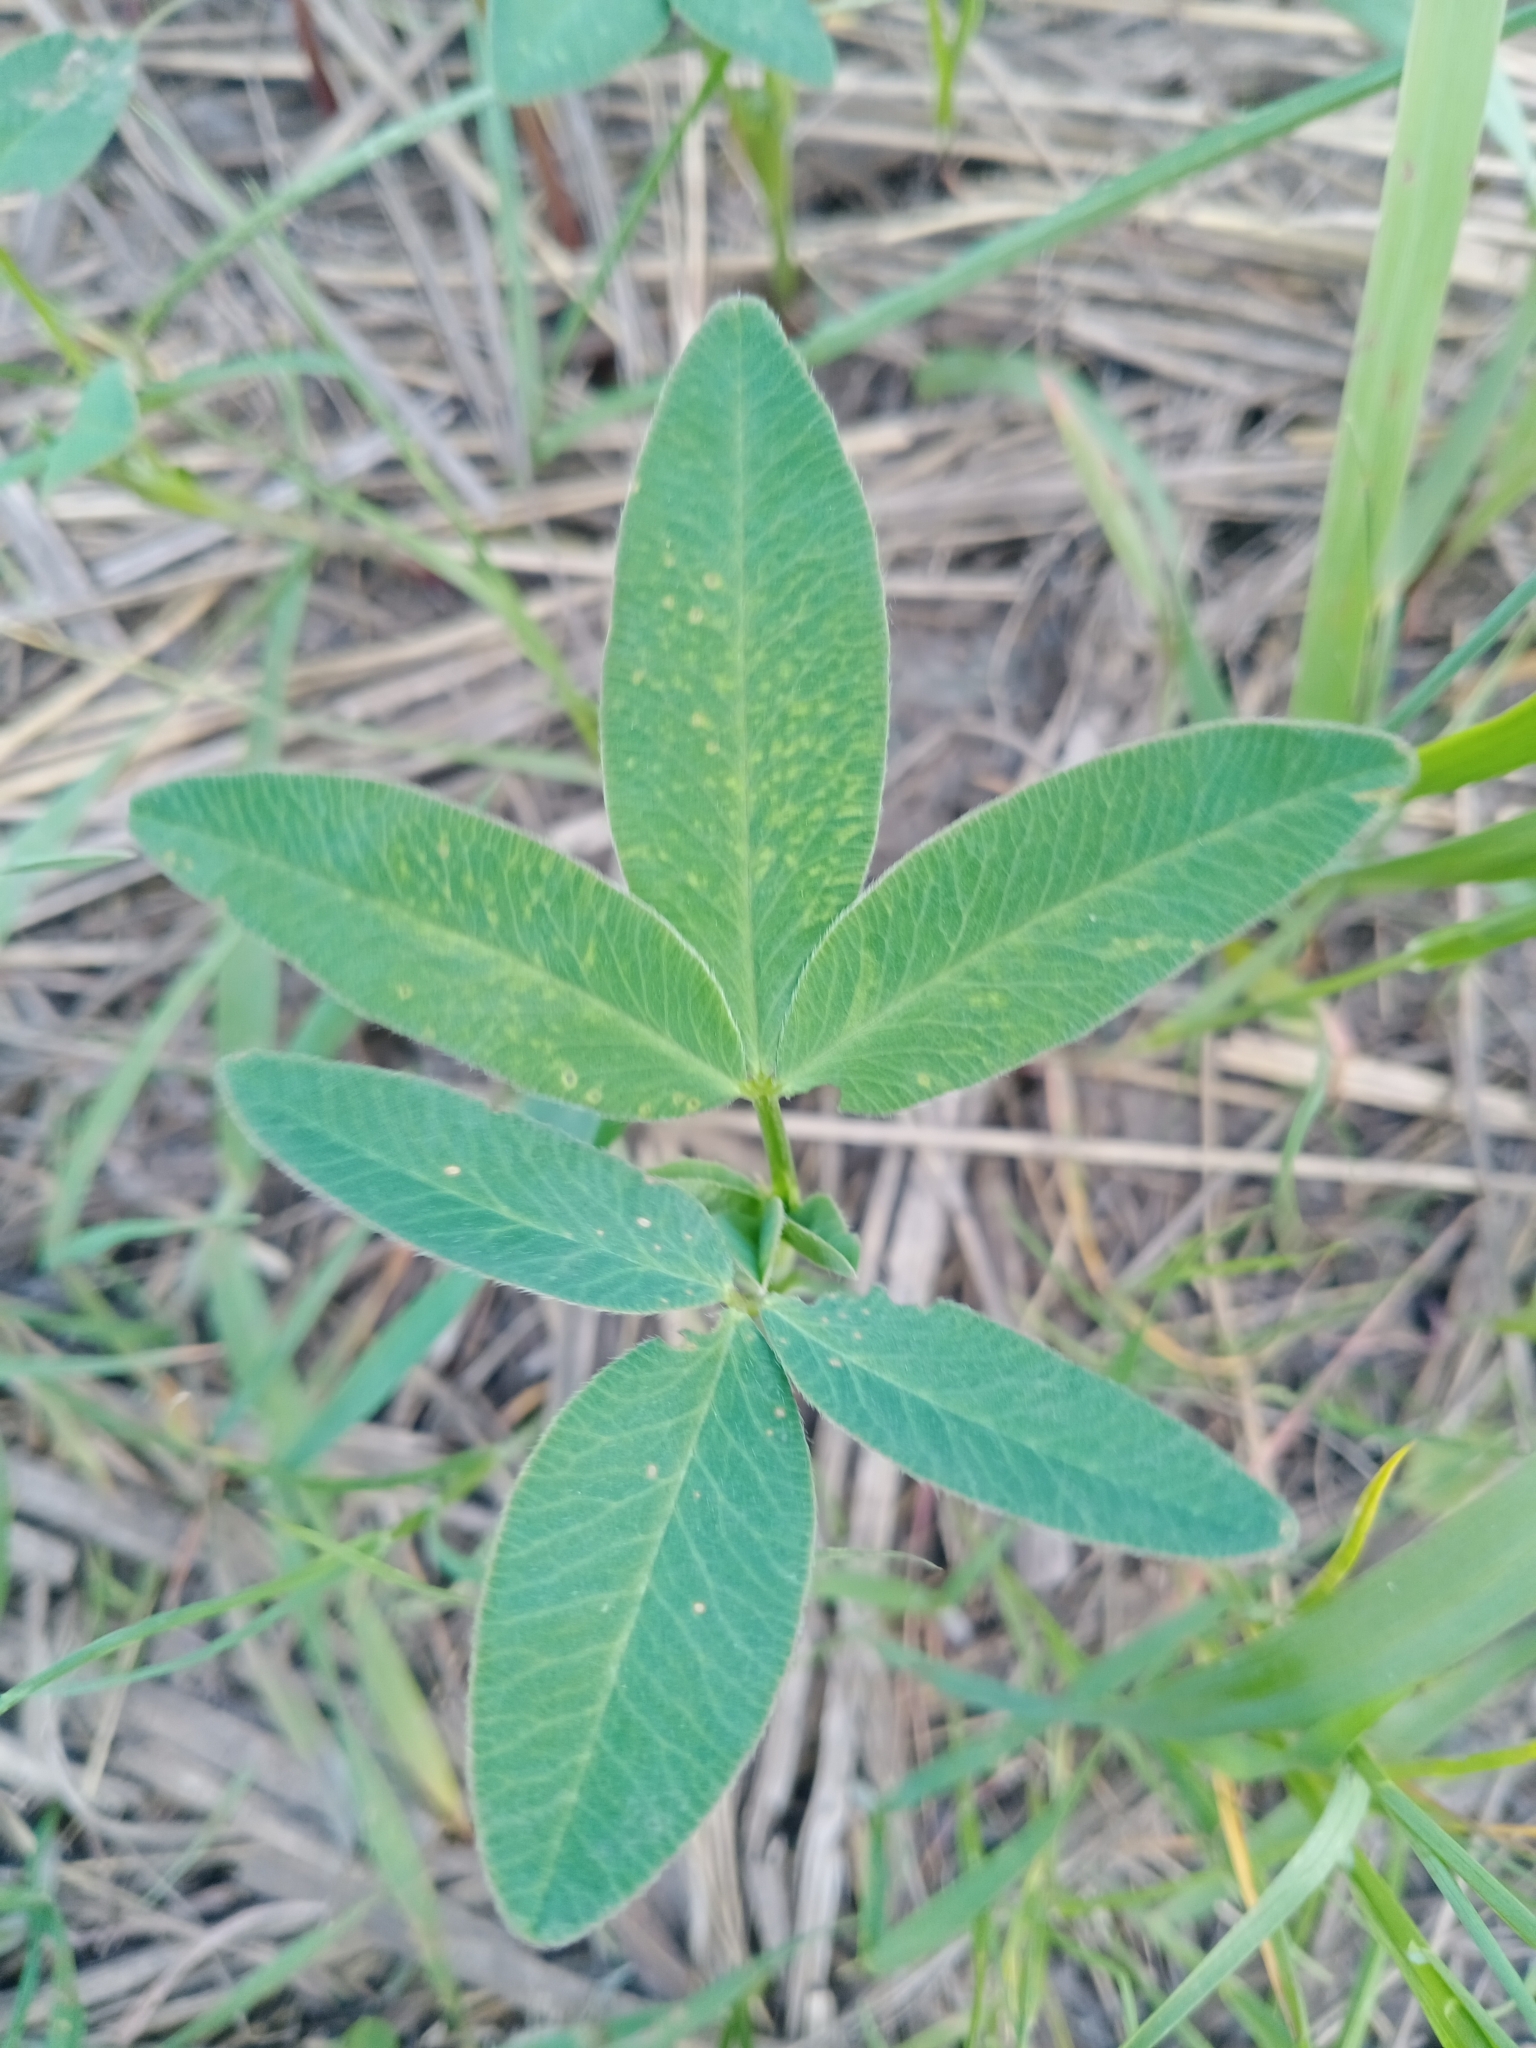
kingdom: Plantae
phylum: Tracheophyta
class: Magnoliopsida
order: Fabales
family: Fabaceae
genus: Trifolium
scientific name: Trifolium medium
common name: Zigzag clover
